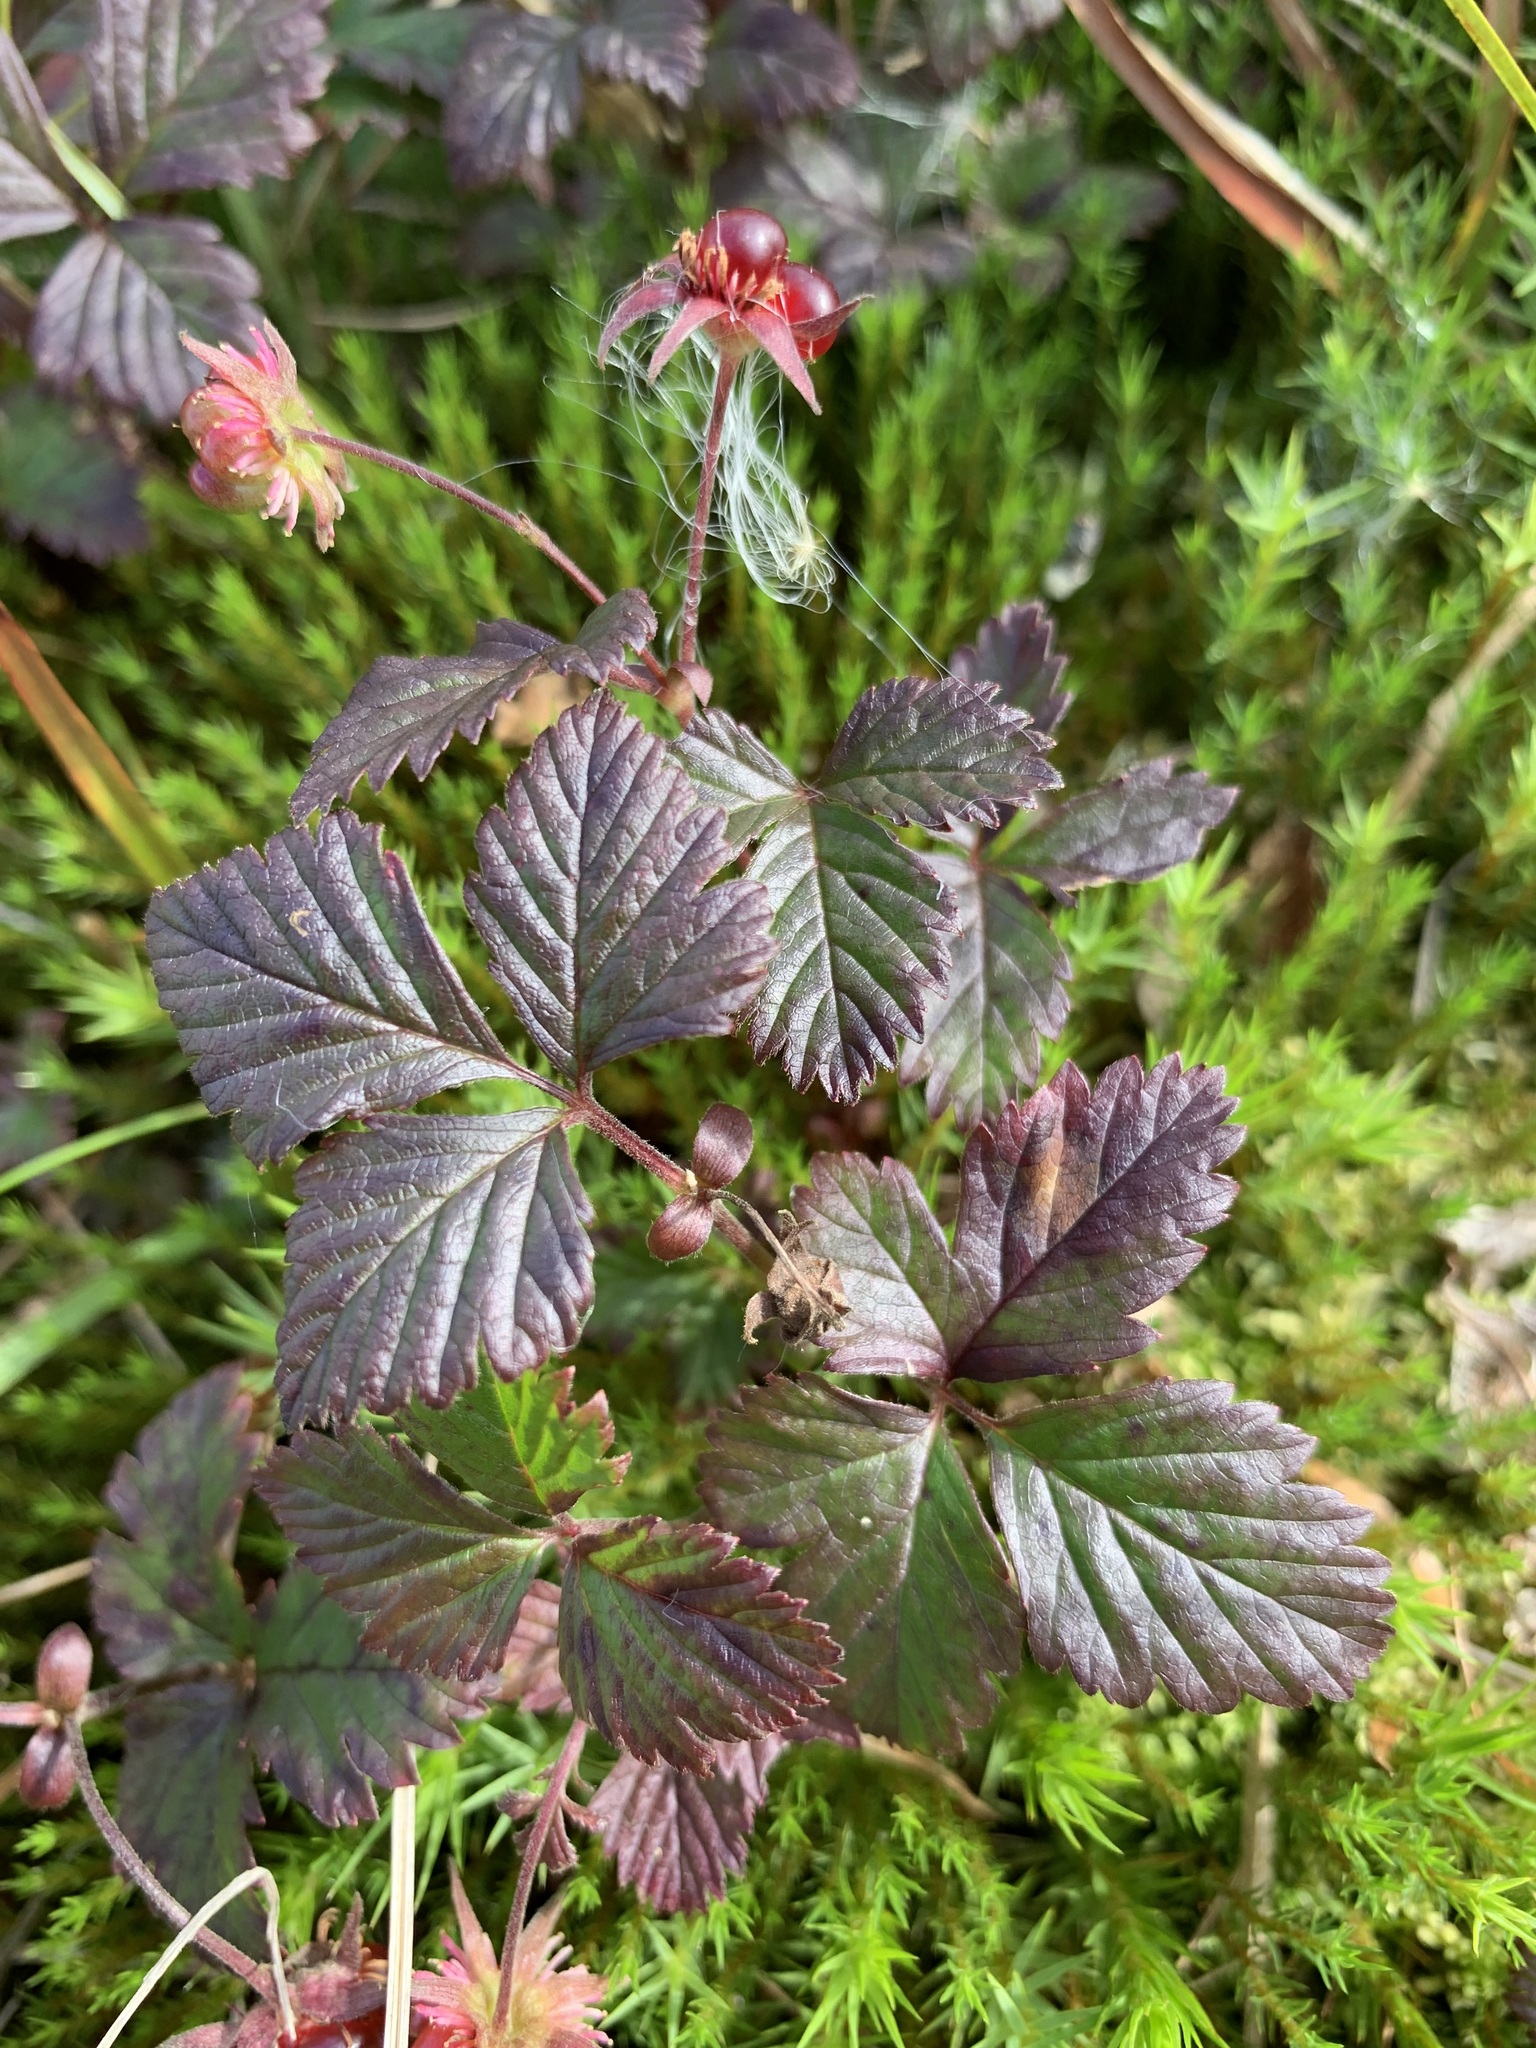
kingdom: Plantae
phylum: Tracheophyta
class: Magnoliopsida
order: Rosales
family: Rosaceae
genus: Rubus
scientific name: Rubus arcticus
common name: Arctic bramble
